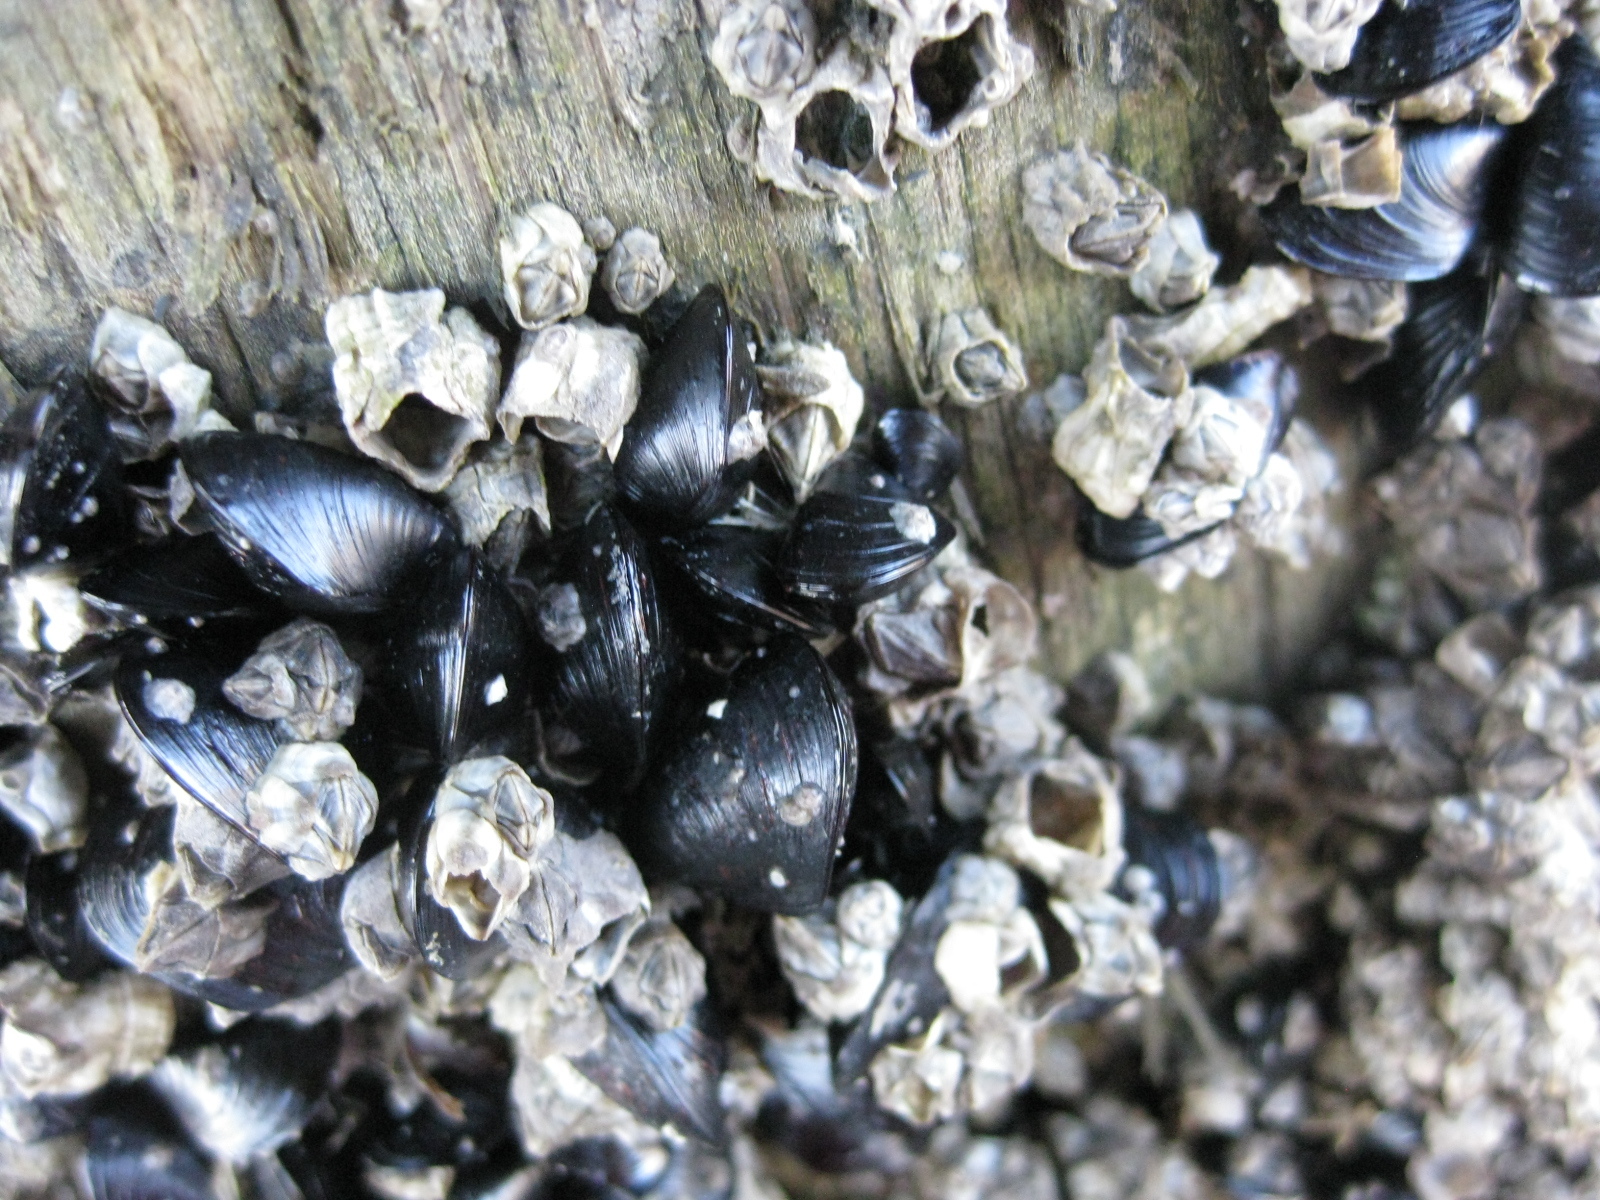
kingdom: Animalia
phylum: Mollusca
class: Bivalvia
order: Mytilida
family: Mytilidae
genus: Xenostrobus
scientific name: Xenostrobus neozelanicus
